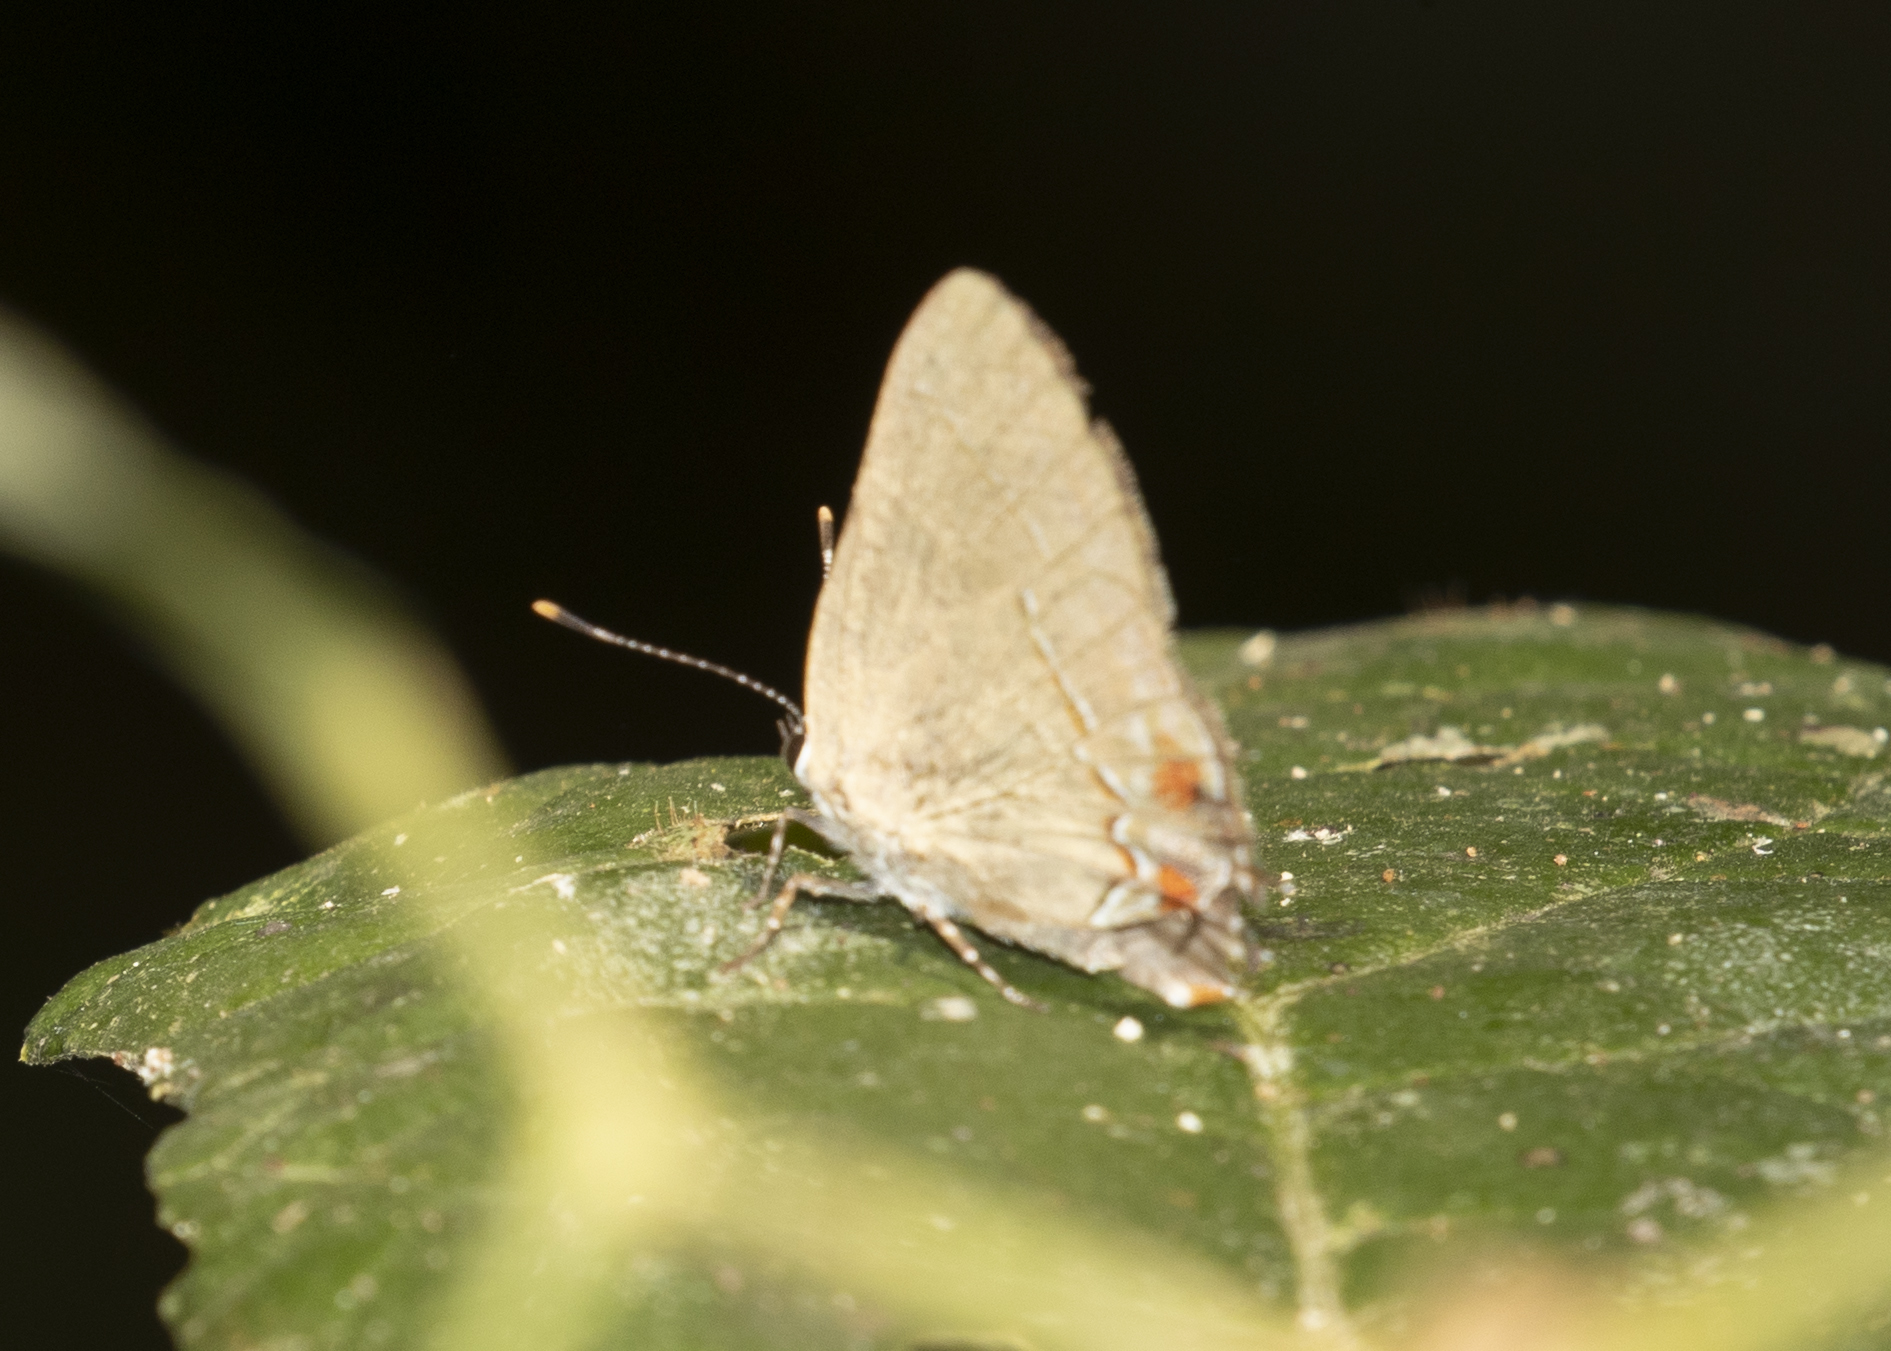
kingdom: Animalia
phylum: Arthropoda
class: Insecta
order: Lepidoptera
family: Lycaenidae
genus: Thecla
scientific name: Thecla aruma
